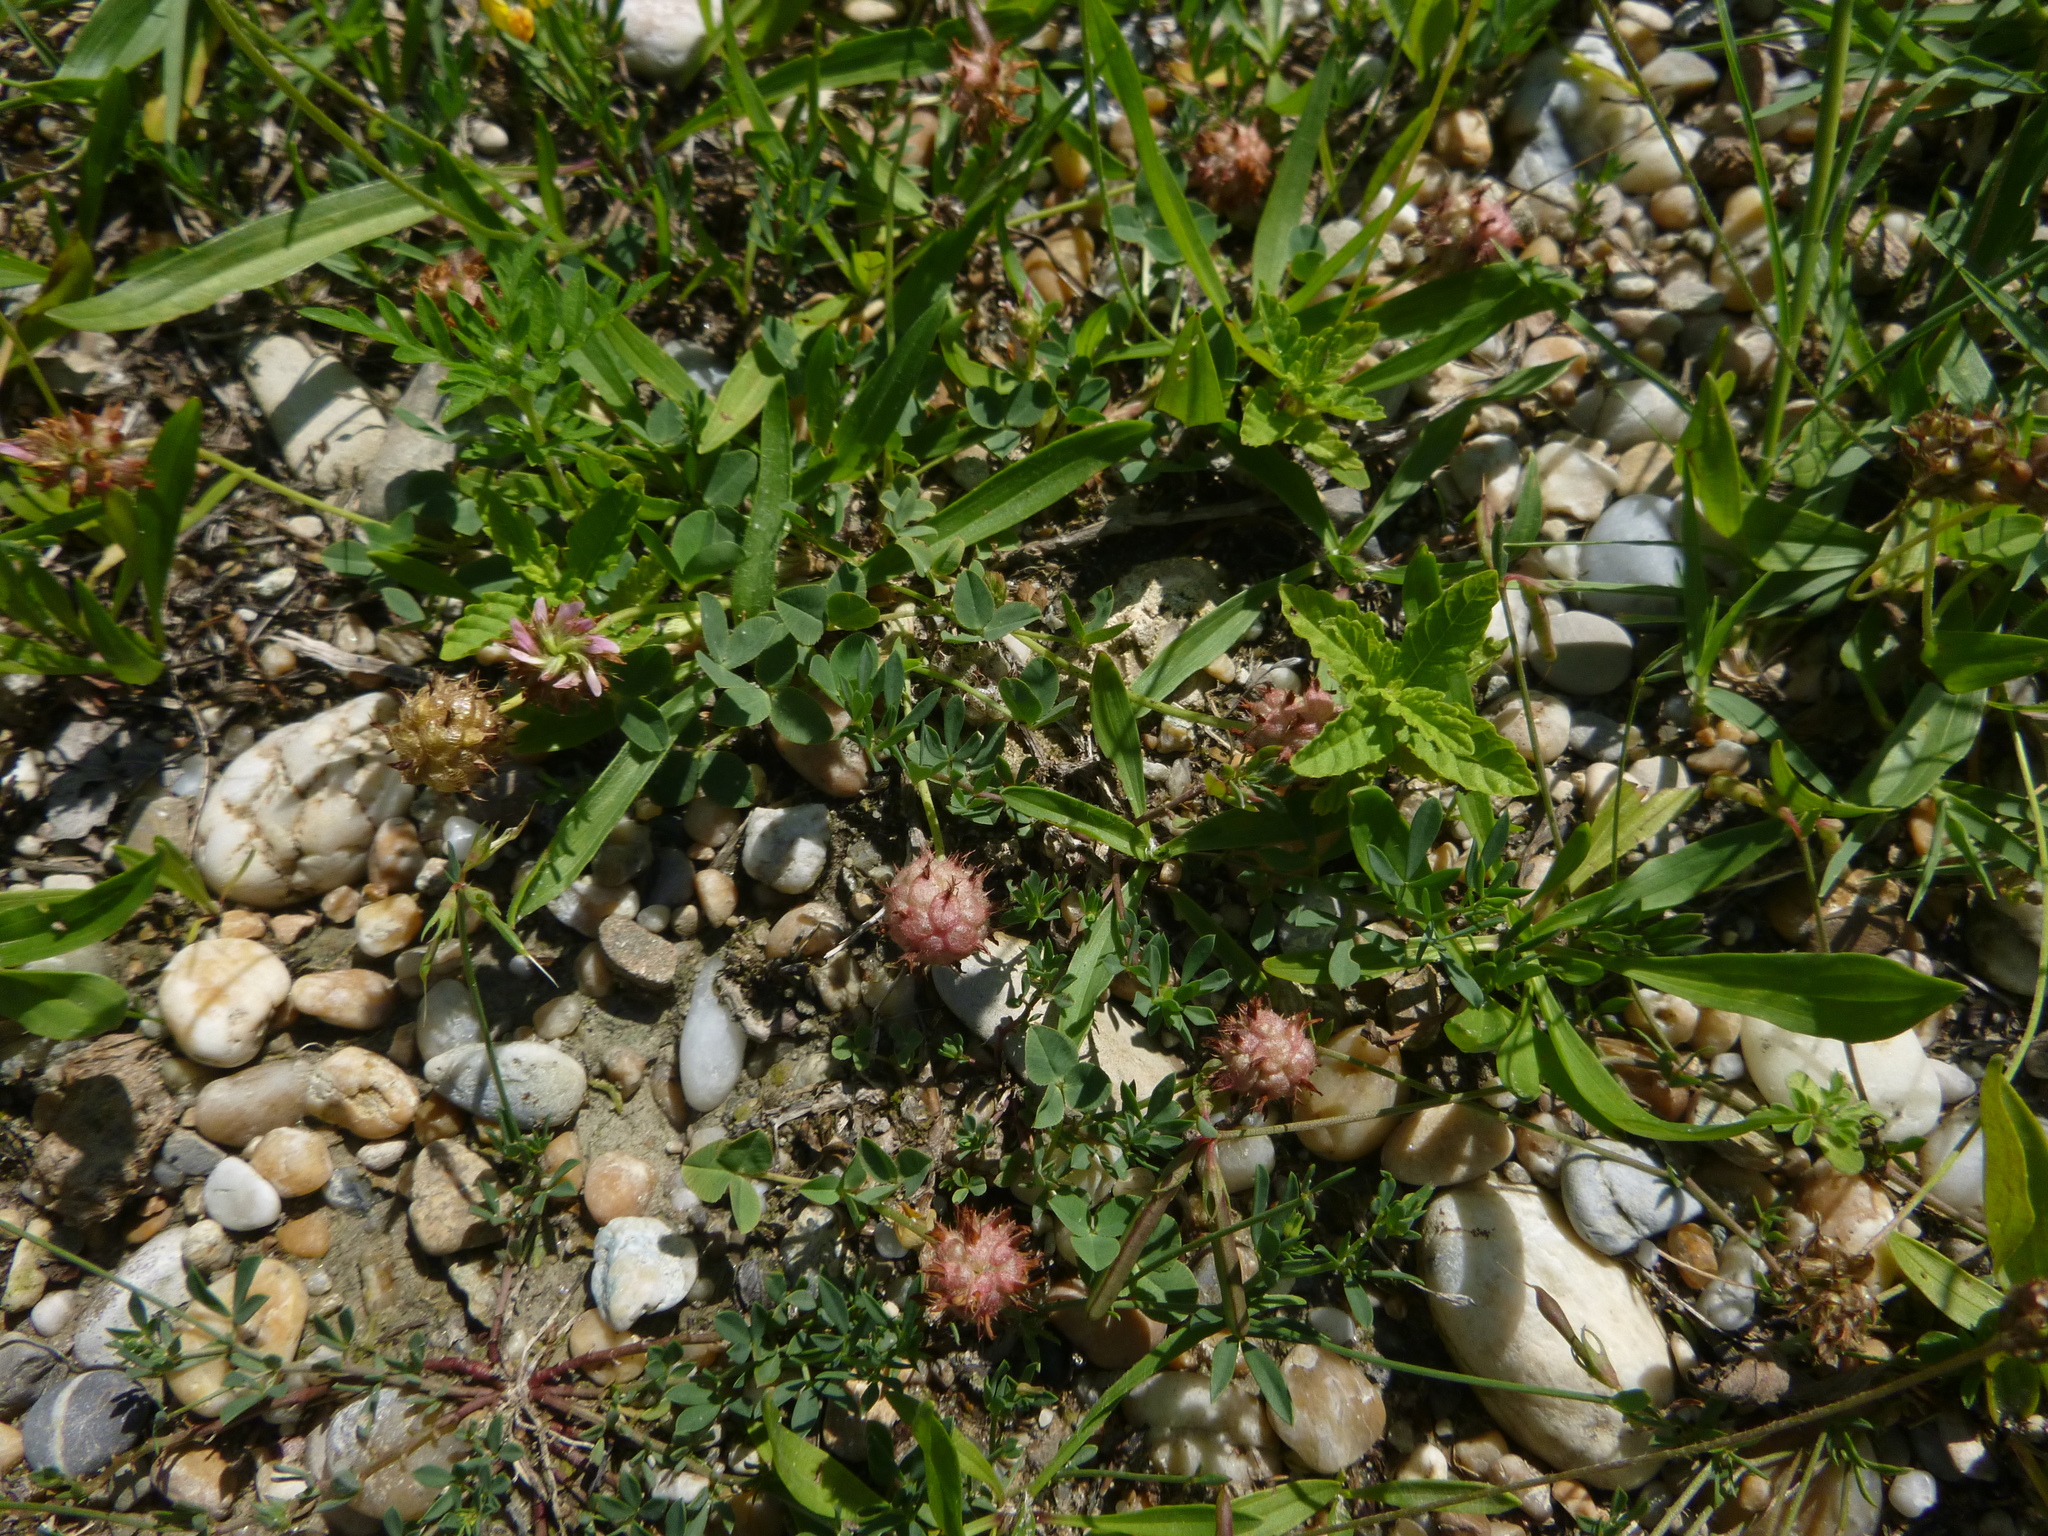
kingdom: Plantae
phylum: Tracheophyta
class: Magnoliopsida
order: Fabales
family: Fabaceae
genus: Trifolium
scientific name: Trifolium fragiferum
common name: Strawberry clover
